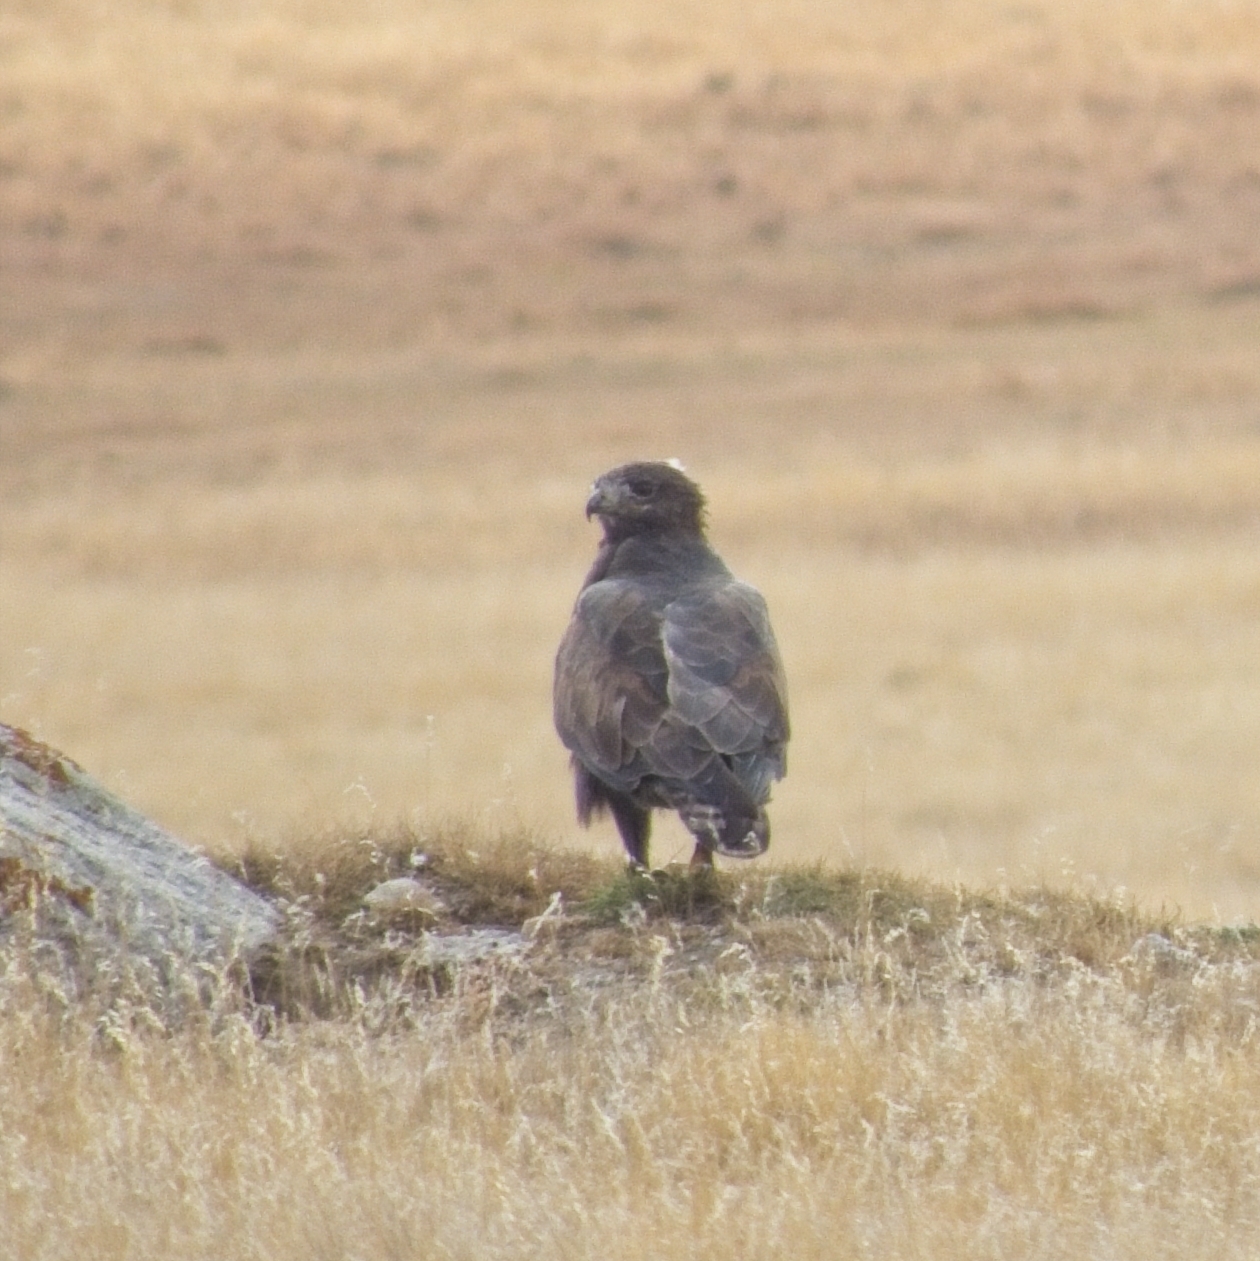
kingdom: Animalia
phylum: Chordata
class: Aves
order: Accipitriformes
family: Accipitridae
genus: Buteo
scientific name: Buteo hemilasius
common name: Upland buzzard
